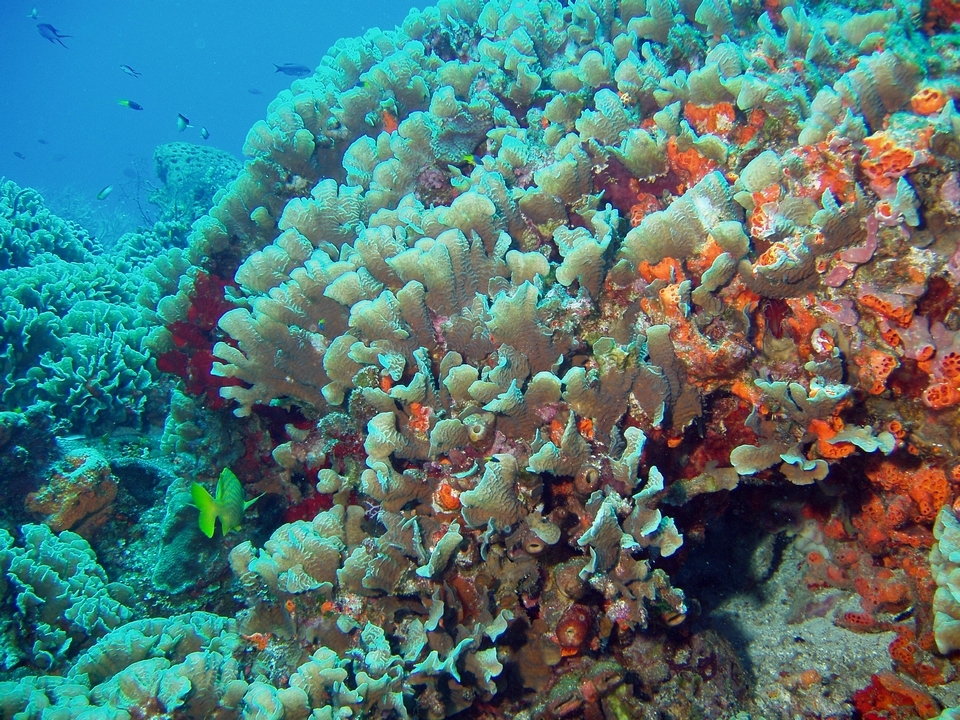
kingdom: Animalia
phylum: Cnidaria
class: Anthozoa
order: Scleractinia
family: Agariciidae
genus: Agaricia
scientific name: Agaricia tenuifolia
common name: Thin leaf lettuce coral
